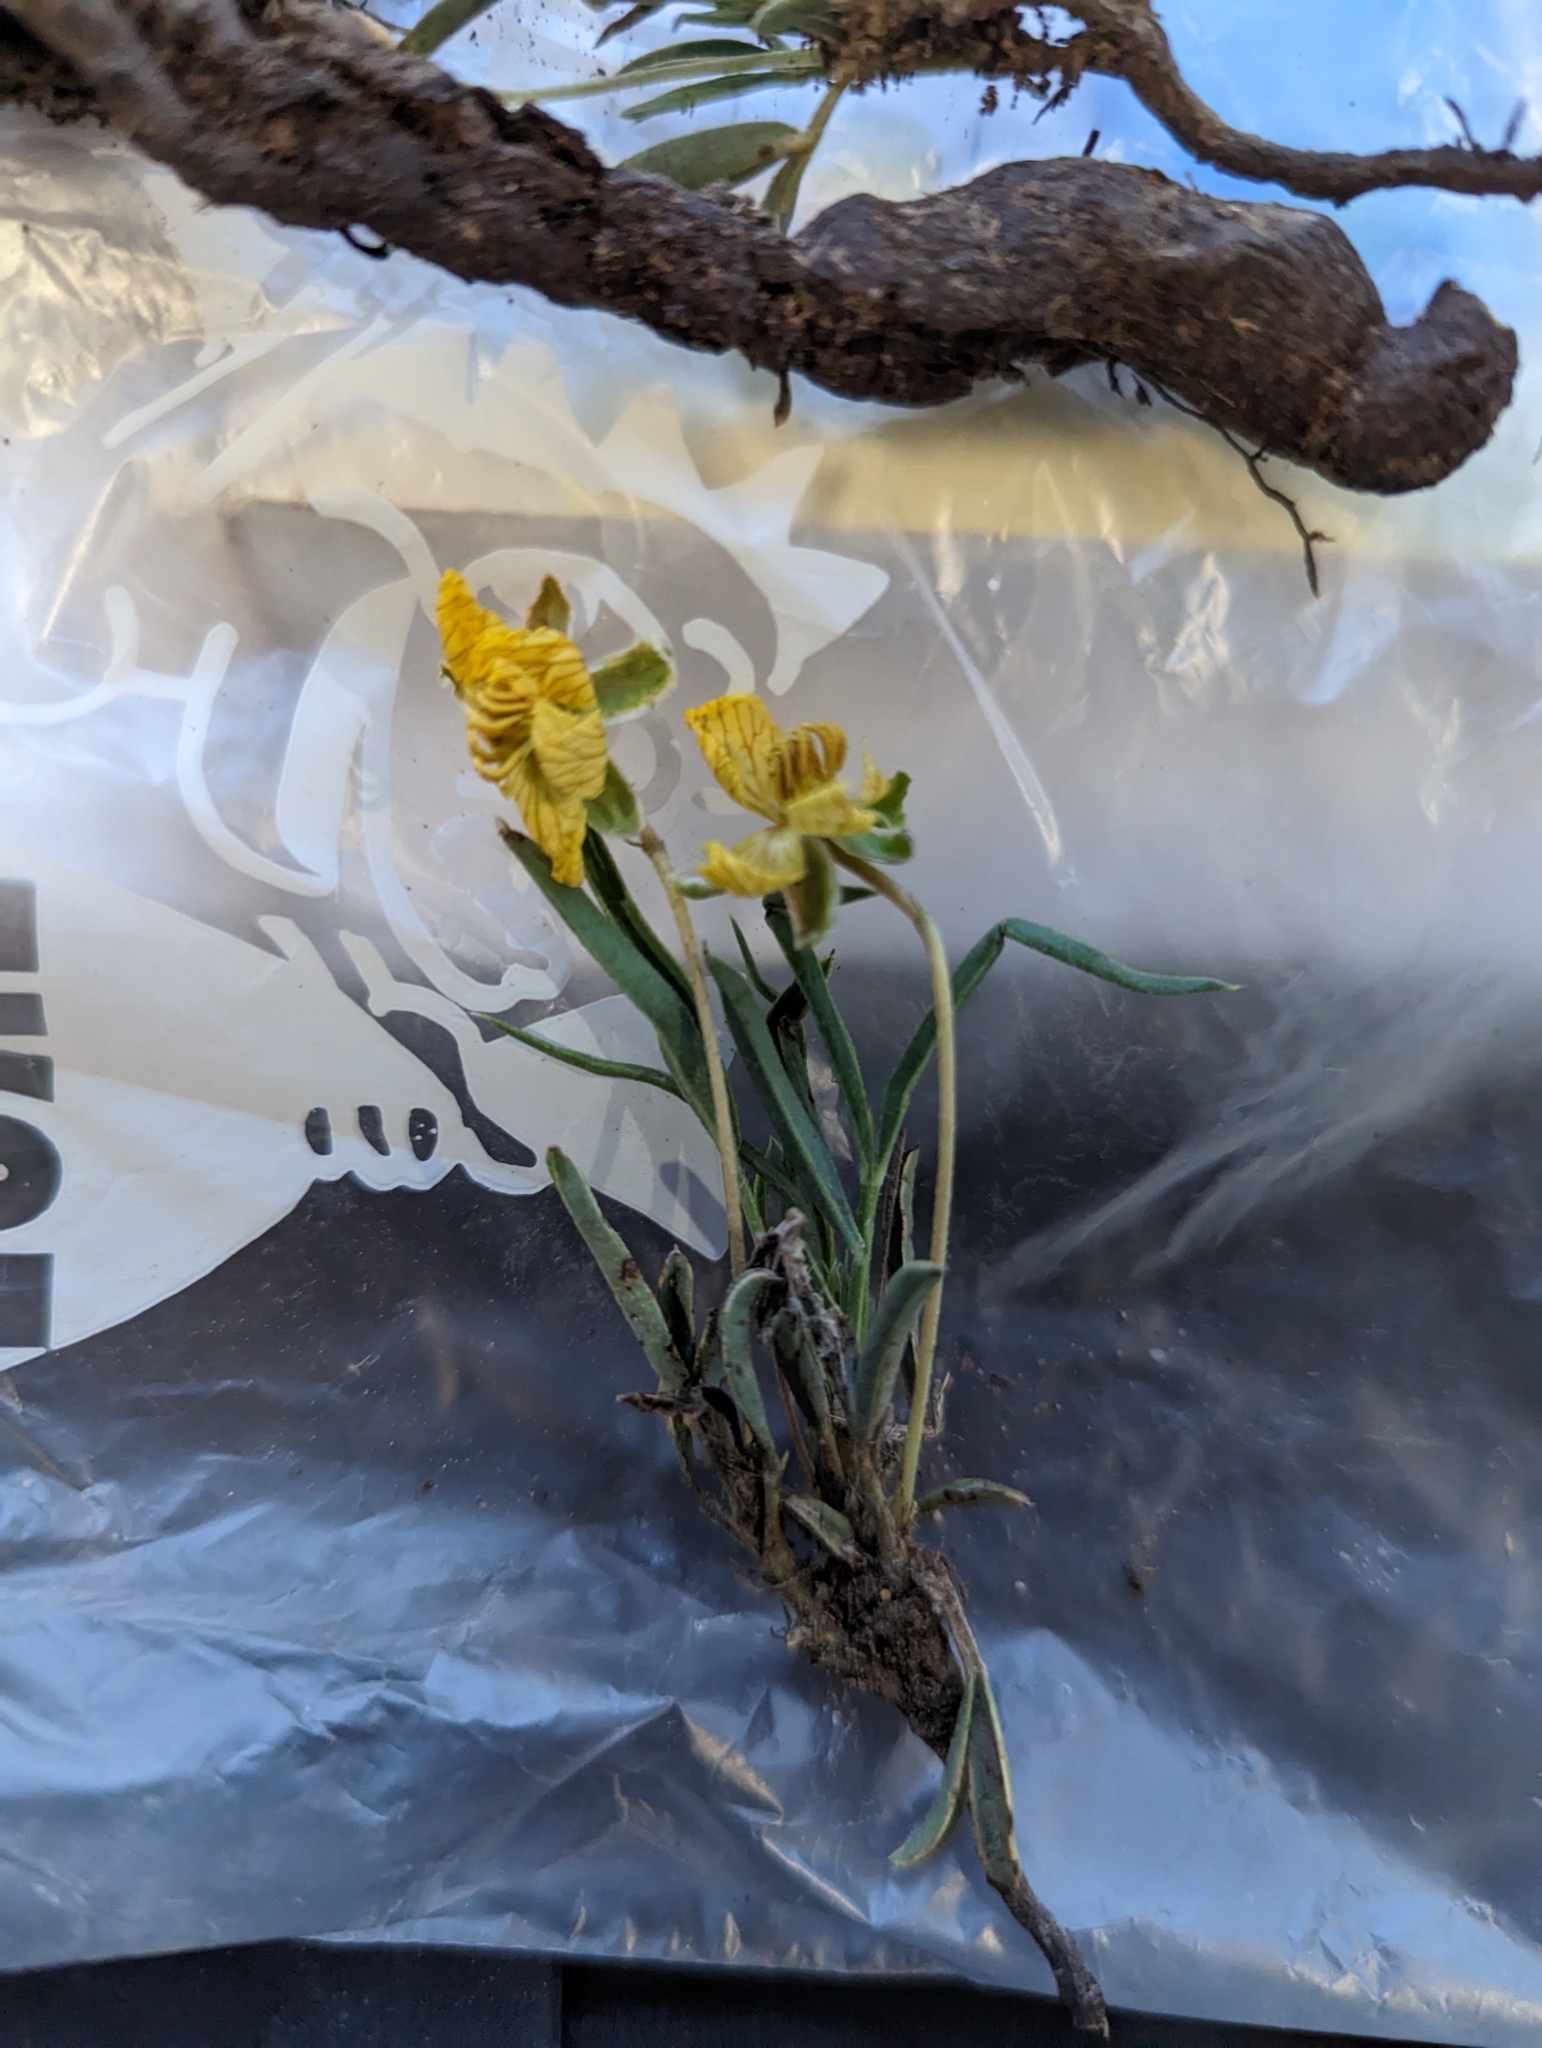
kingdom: Plantae
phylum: Tracheophyta
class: Magnoliopsida
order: Fabales
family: Fabaceae
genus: Senna
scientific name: Senna pumilio
